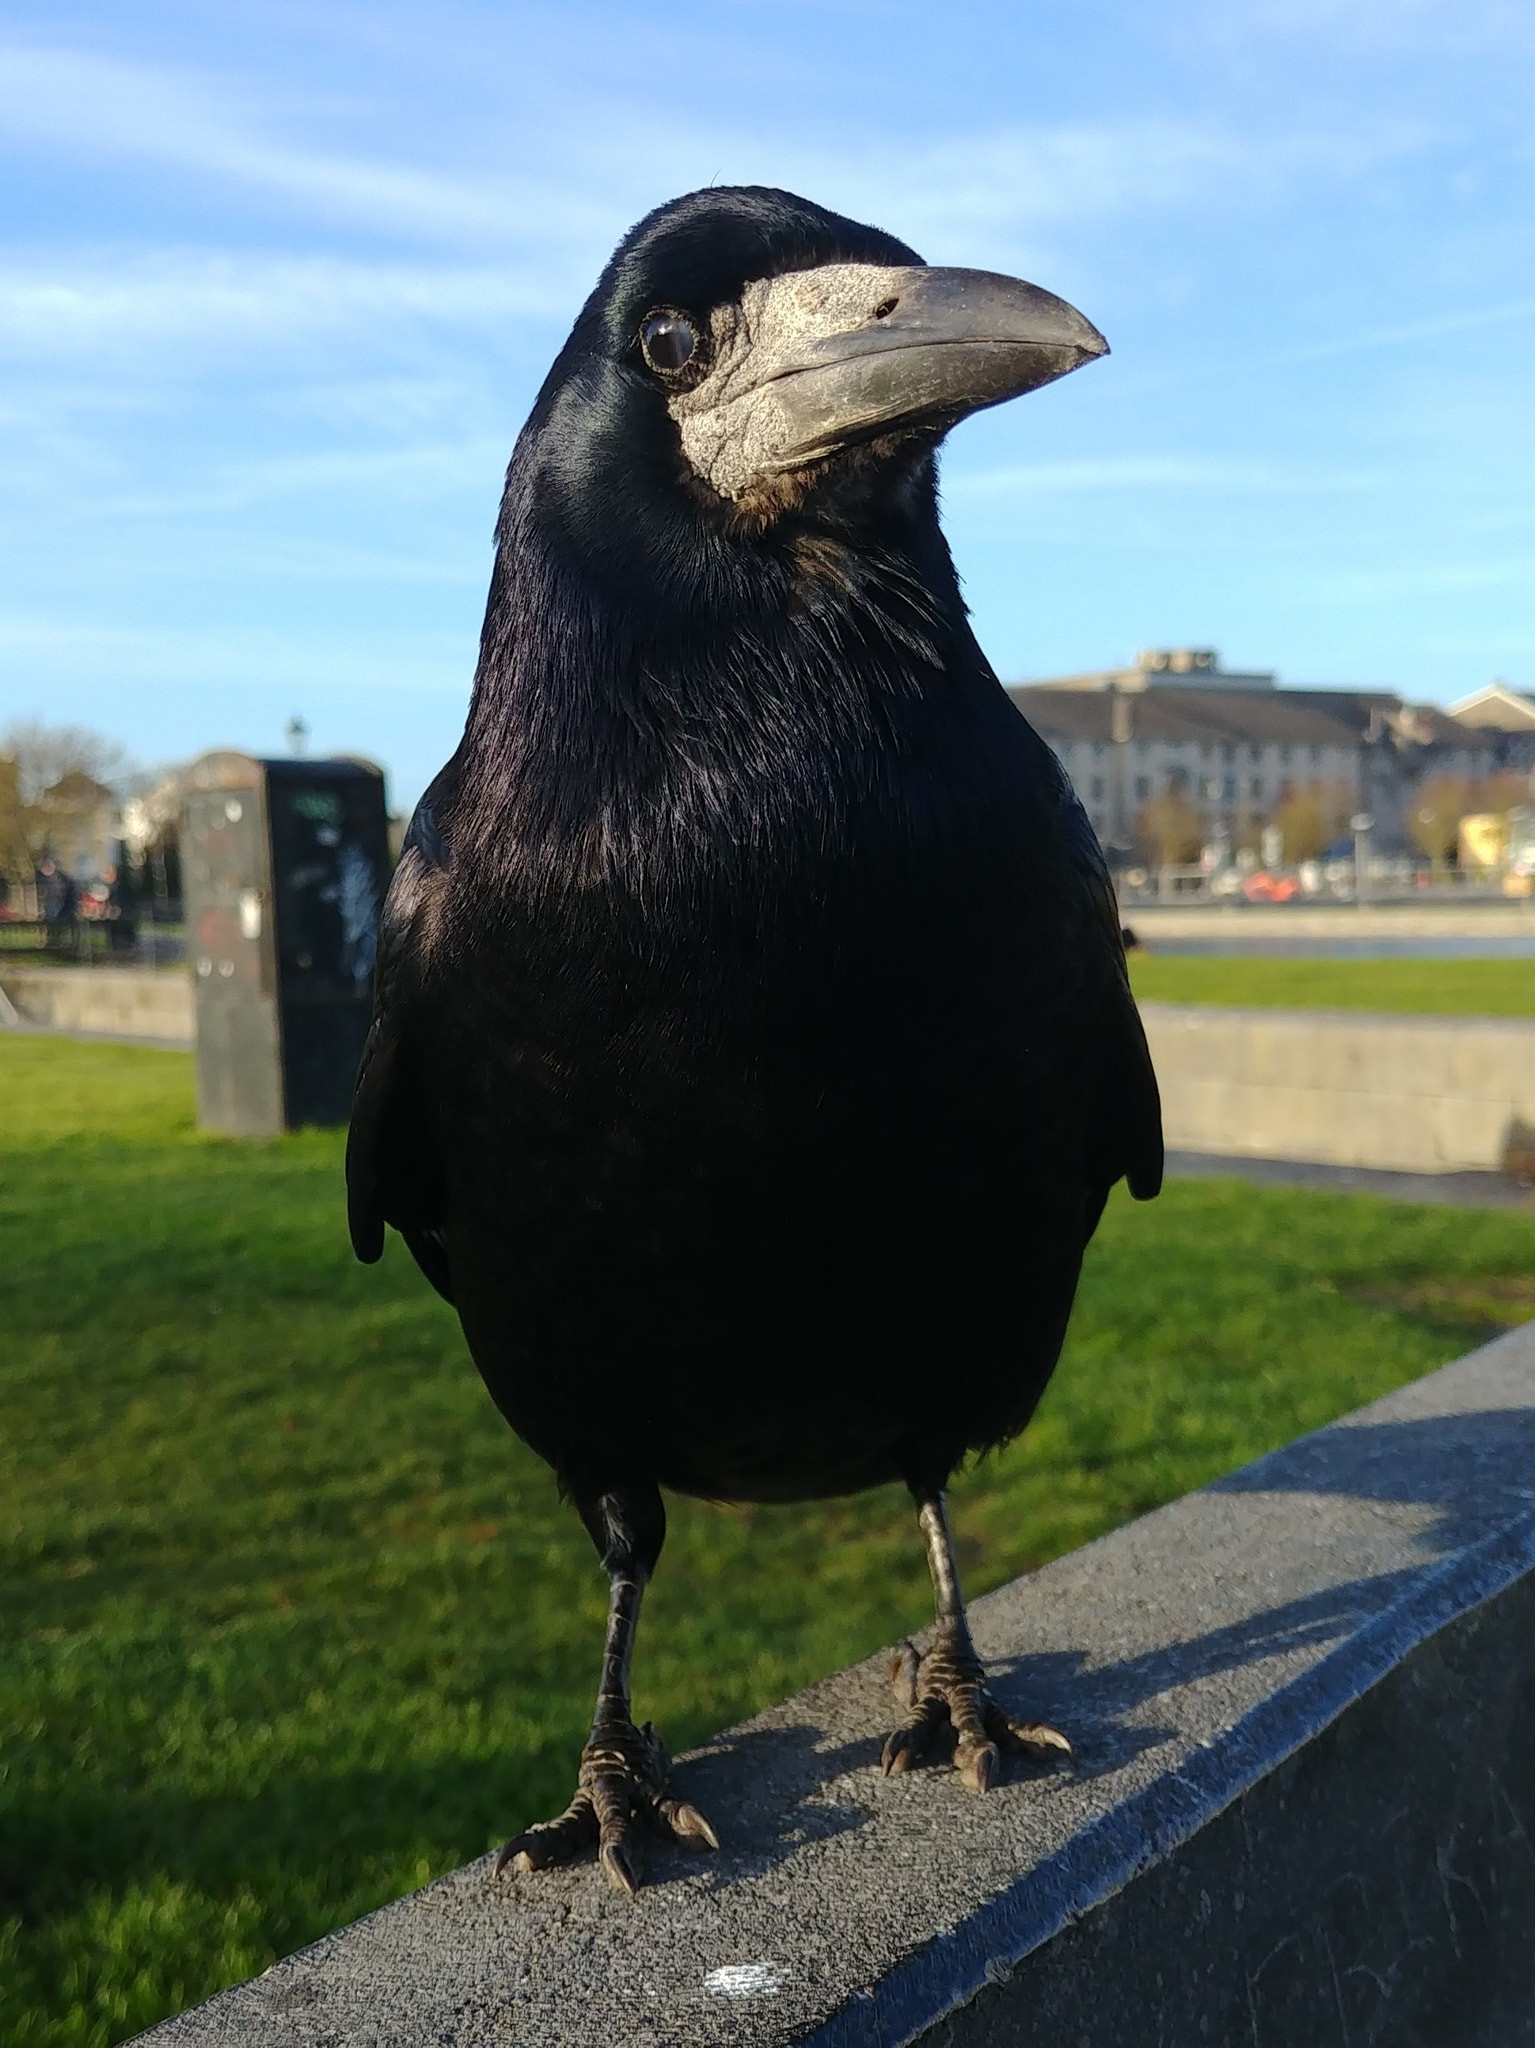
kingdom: Animalia
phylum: Chordata
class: Aves
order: Passeriformes
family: Corvidae
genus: Corvus
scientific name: Corvus frugilegus
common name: Rook
